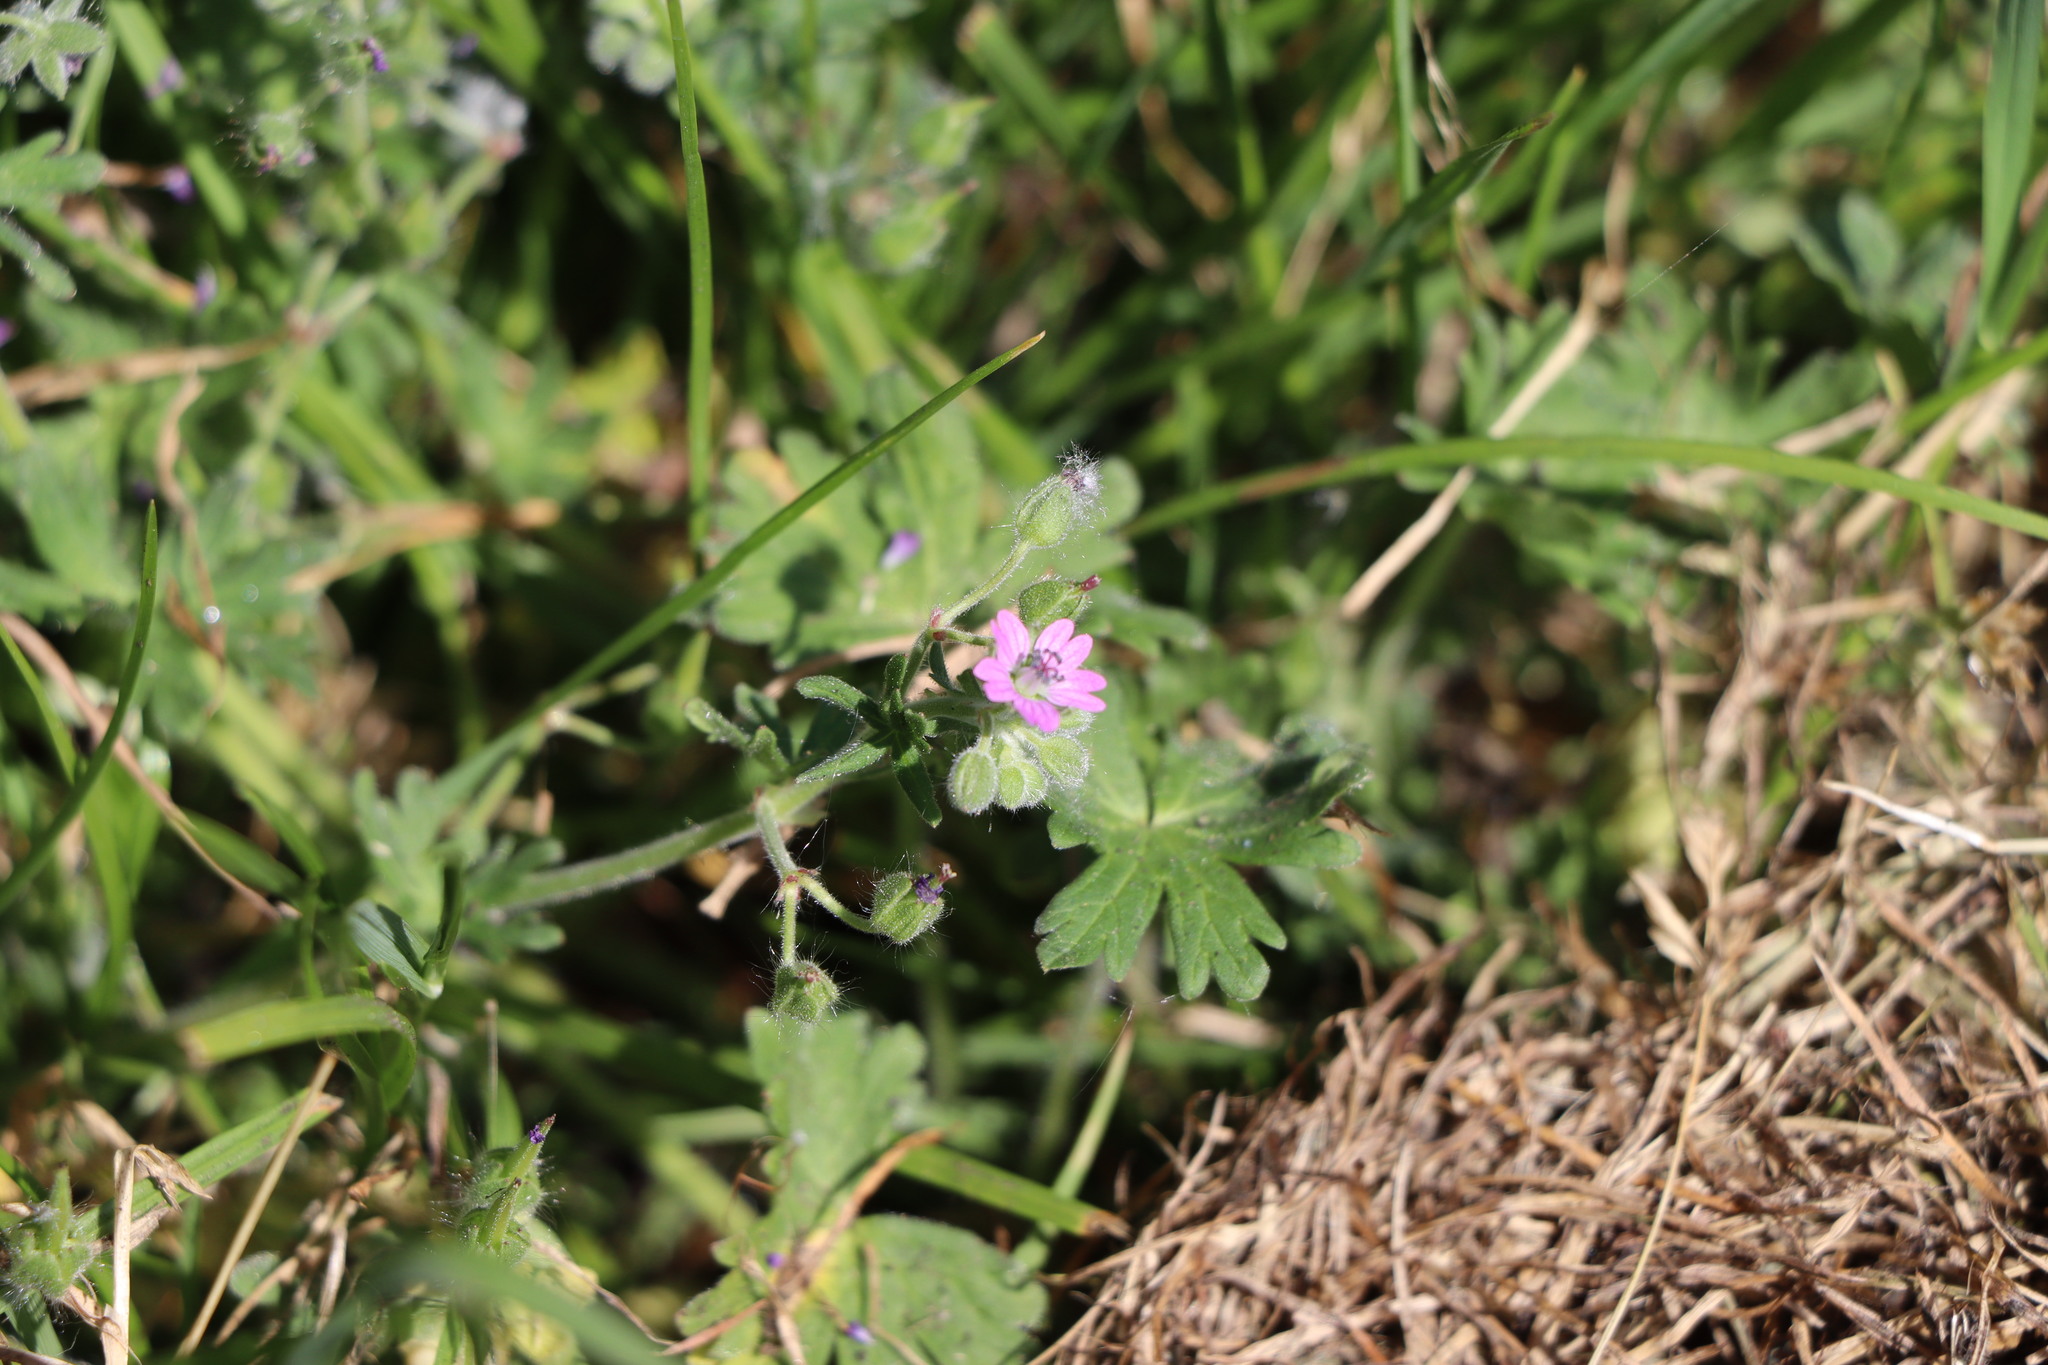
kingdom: Plantae
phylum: Tracheophyta
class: Magnoliopsida
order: Geraniales
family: Geraniaceae
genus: Geranium
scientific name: Geranium molle
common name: Dove's-foot crane's-bill
